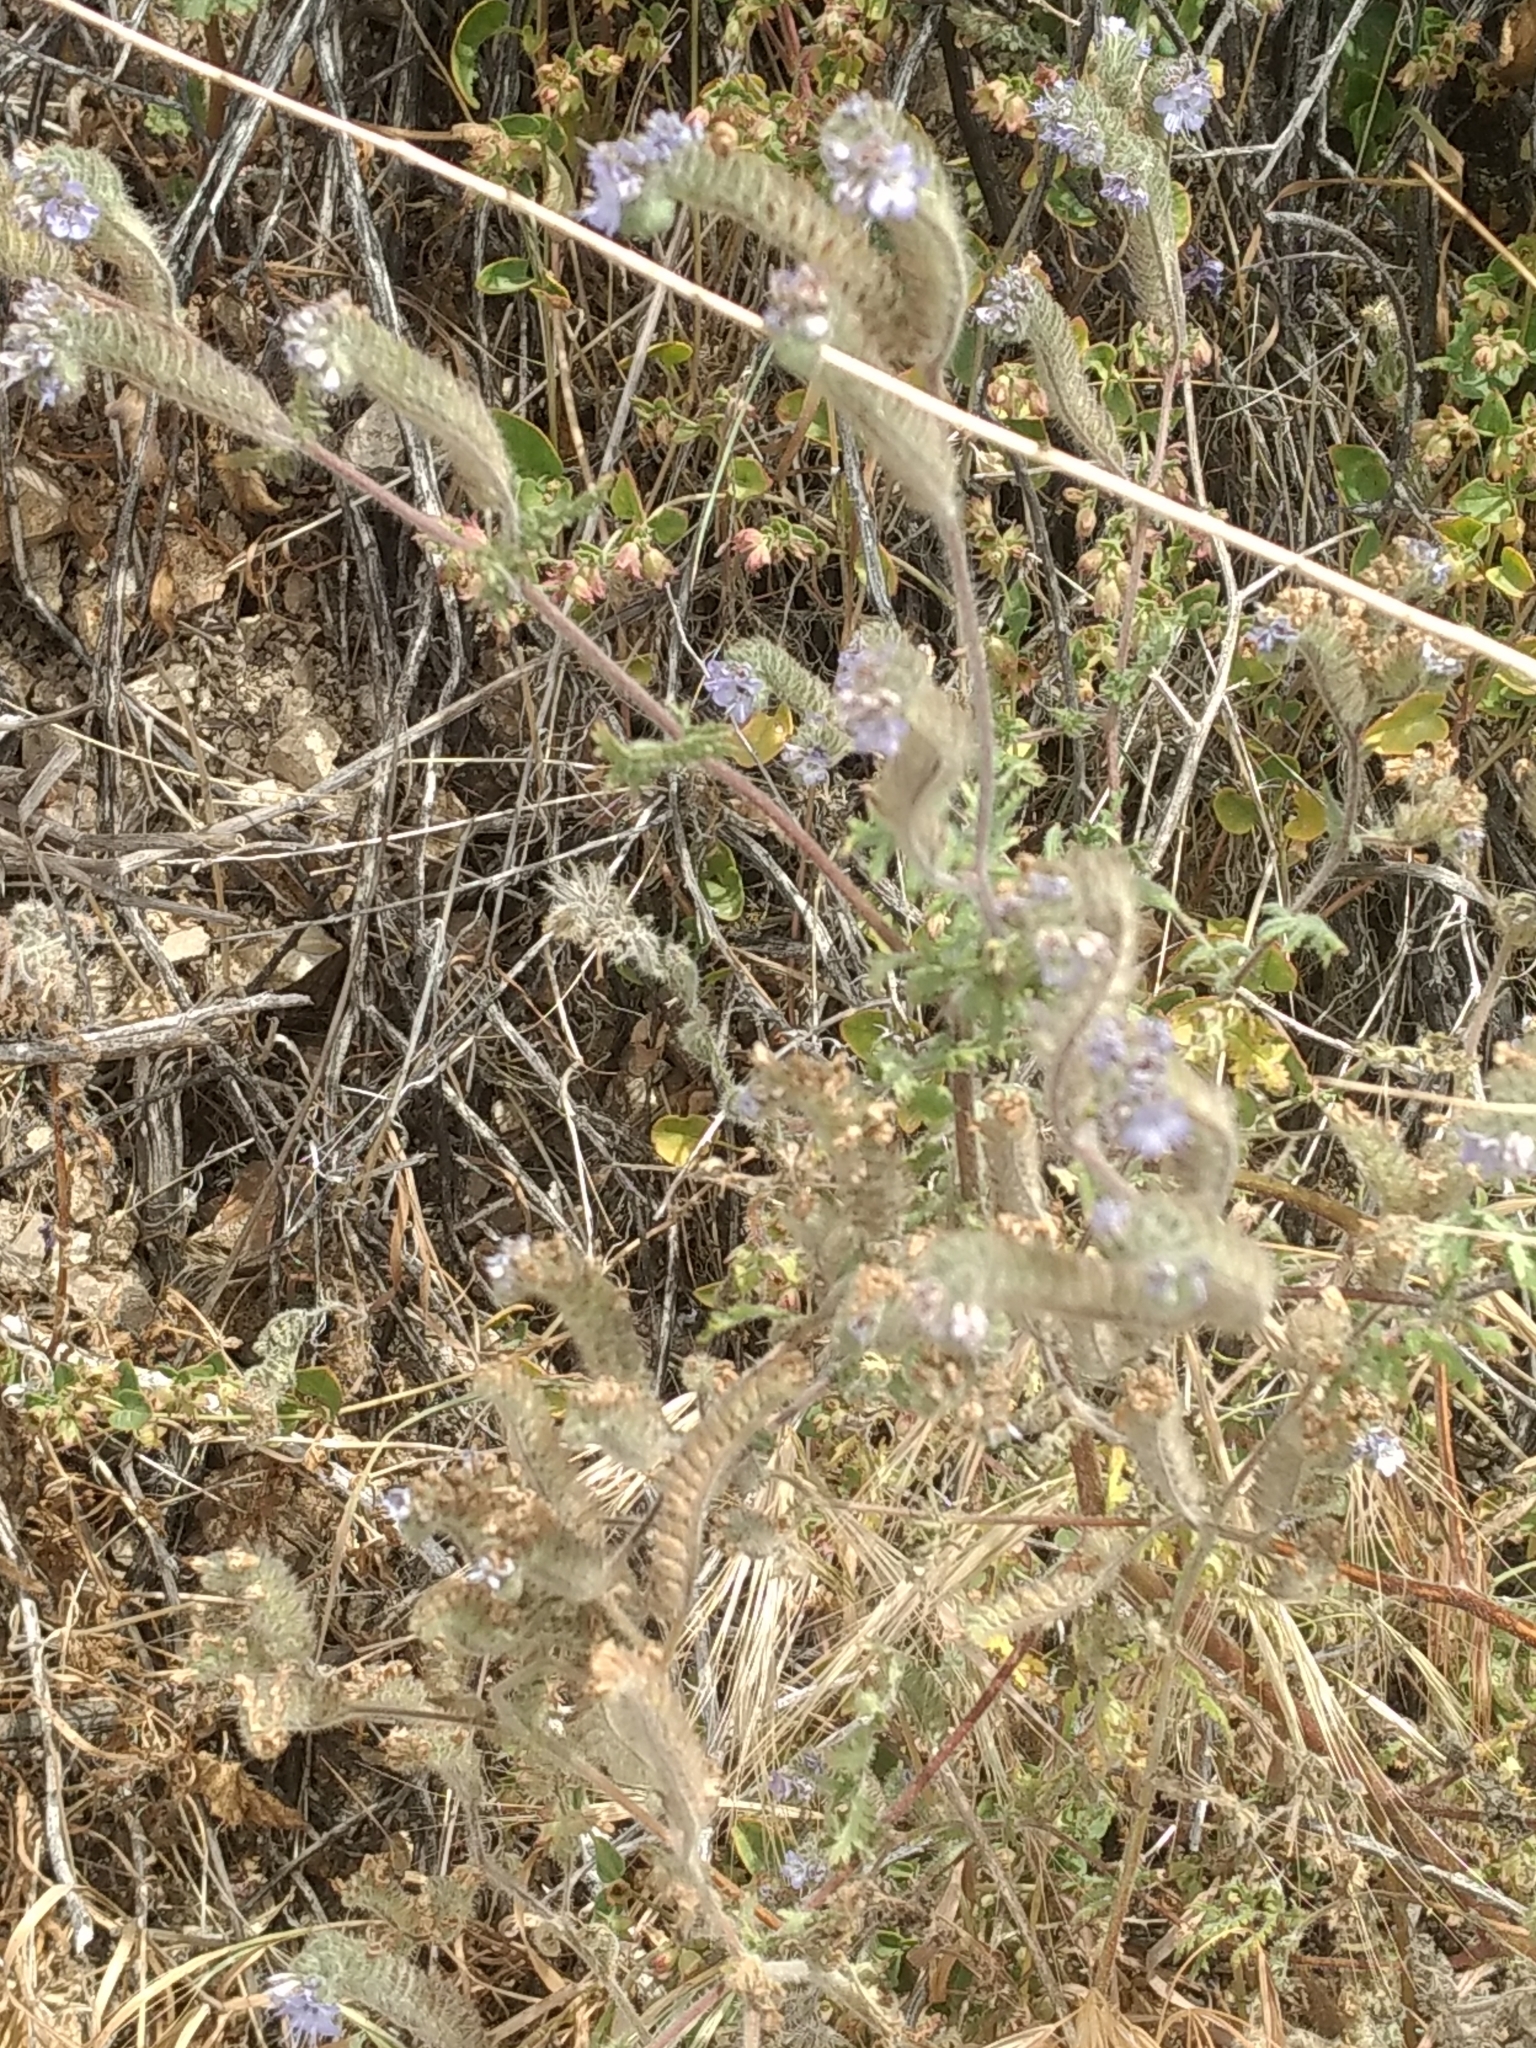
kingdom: Plantae
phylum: Tracheophyta
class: Magnoliopsida
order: Boraginales
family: Hydrophyllaceae
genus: Phacelia
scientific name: Phacelia distans
